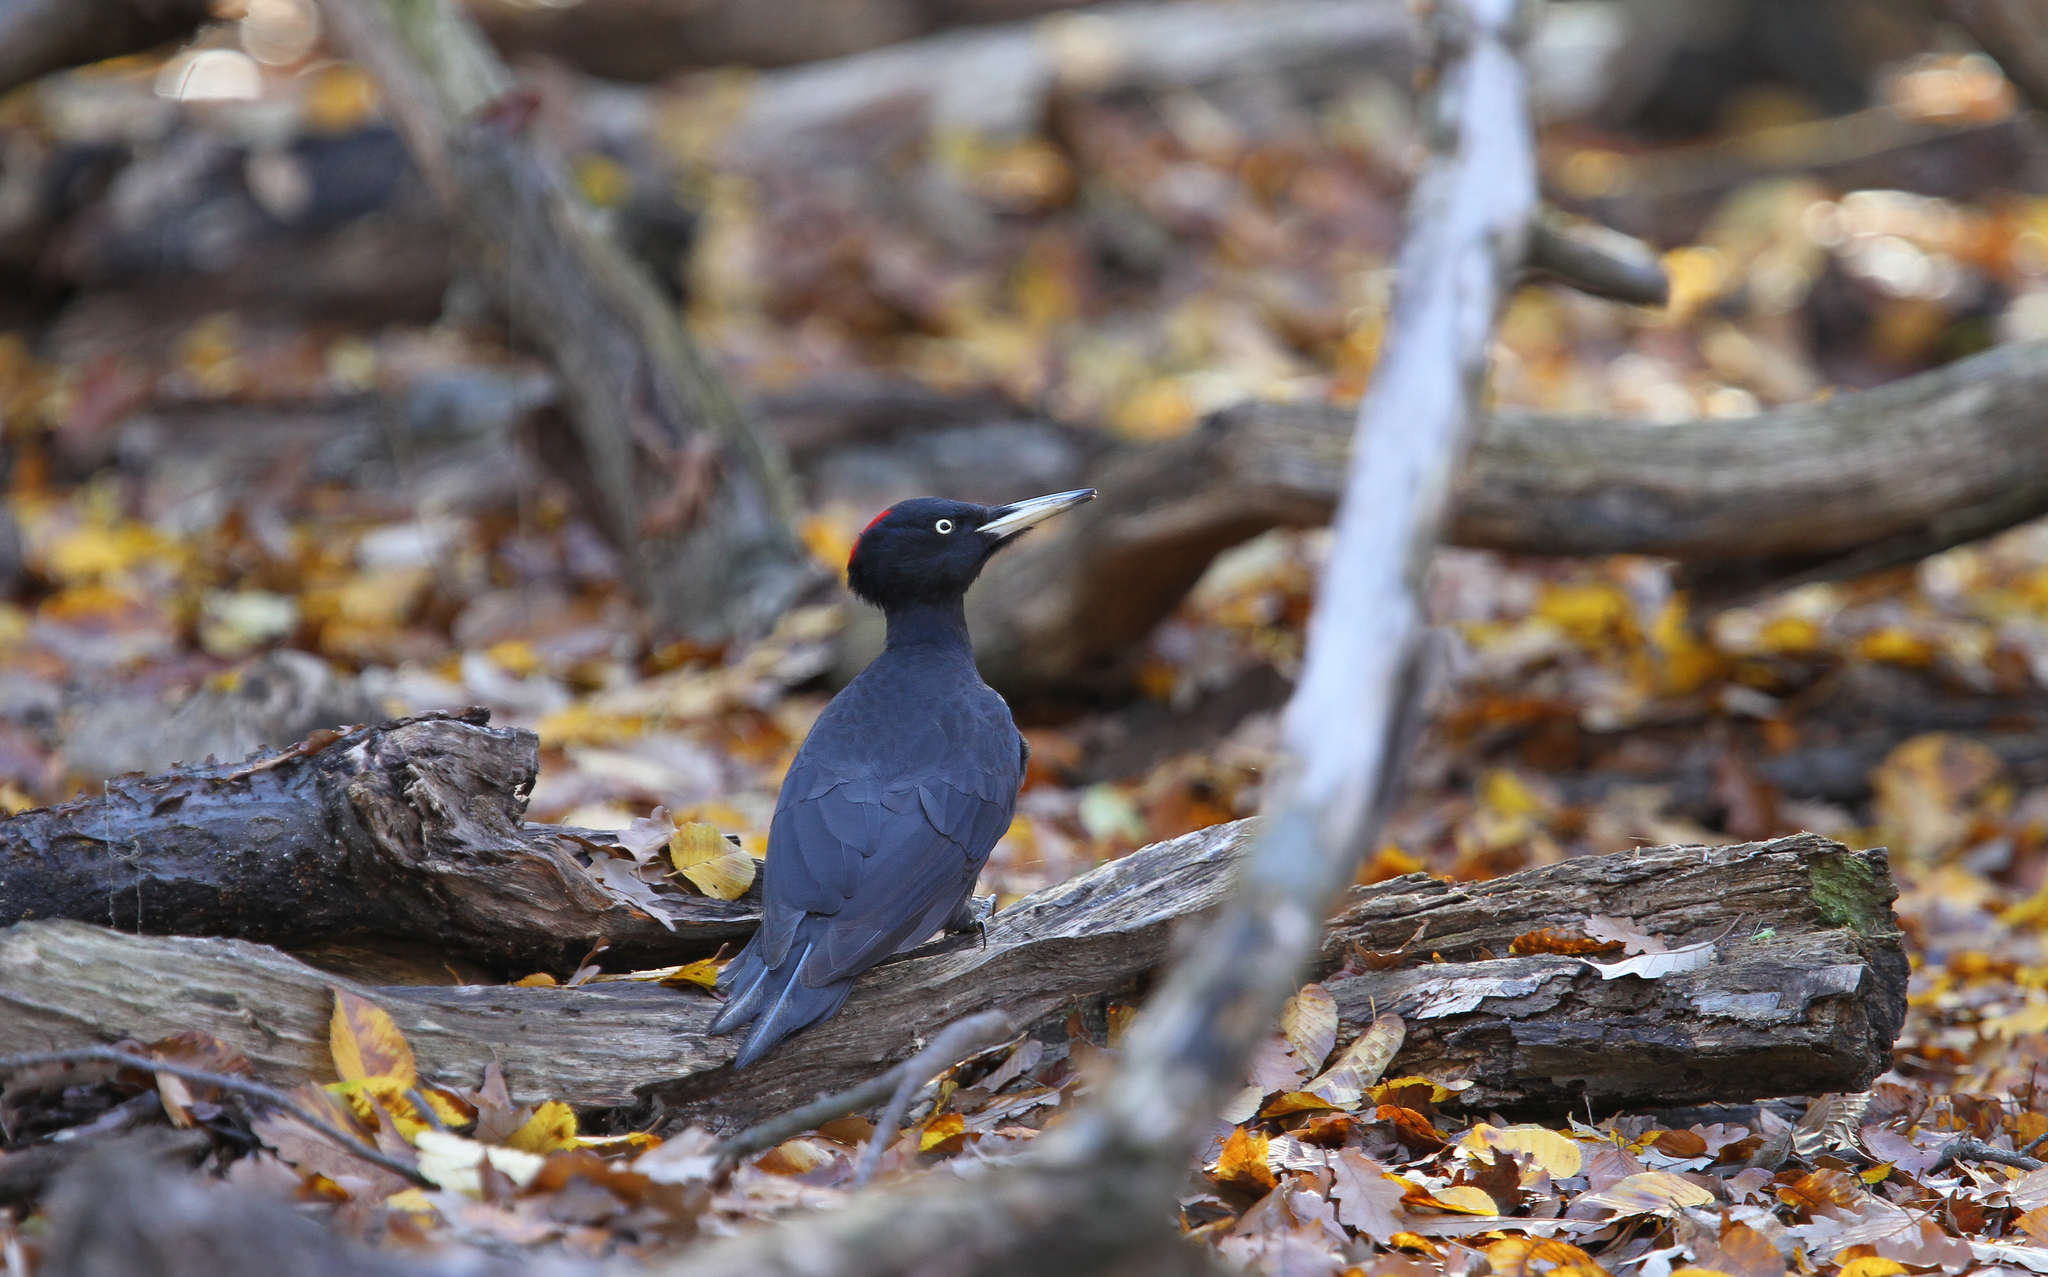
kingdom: Animalia
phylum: Chordata
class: Aves
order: Piciformes
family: Picidae
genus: Dryocopus
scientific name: Dryocopus martius
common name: Black woodpecker
